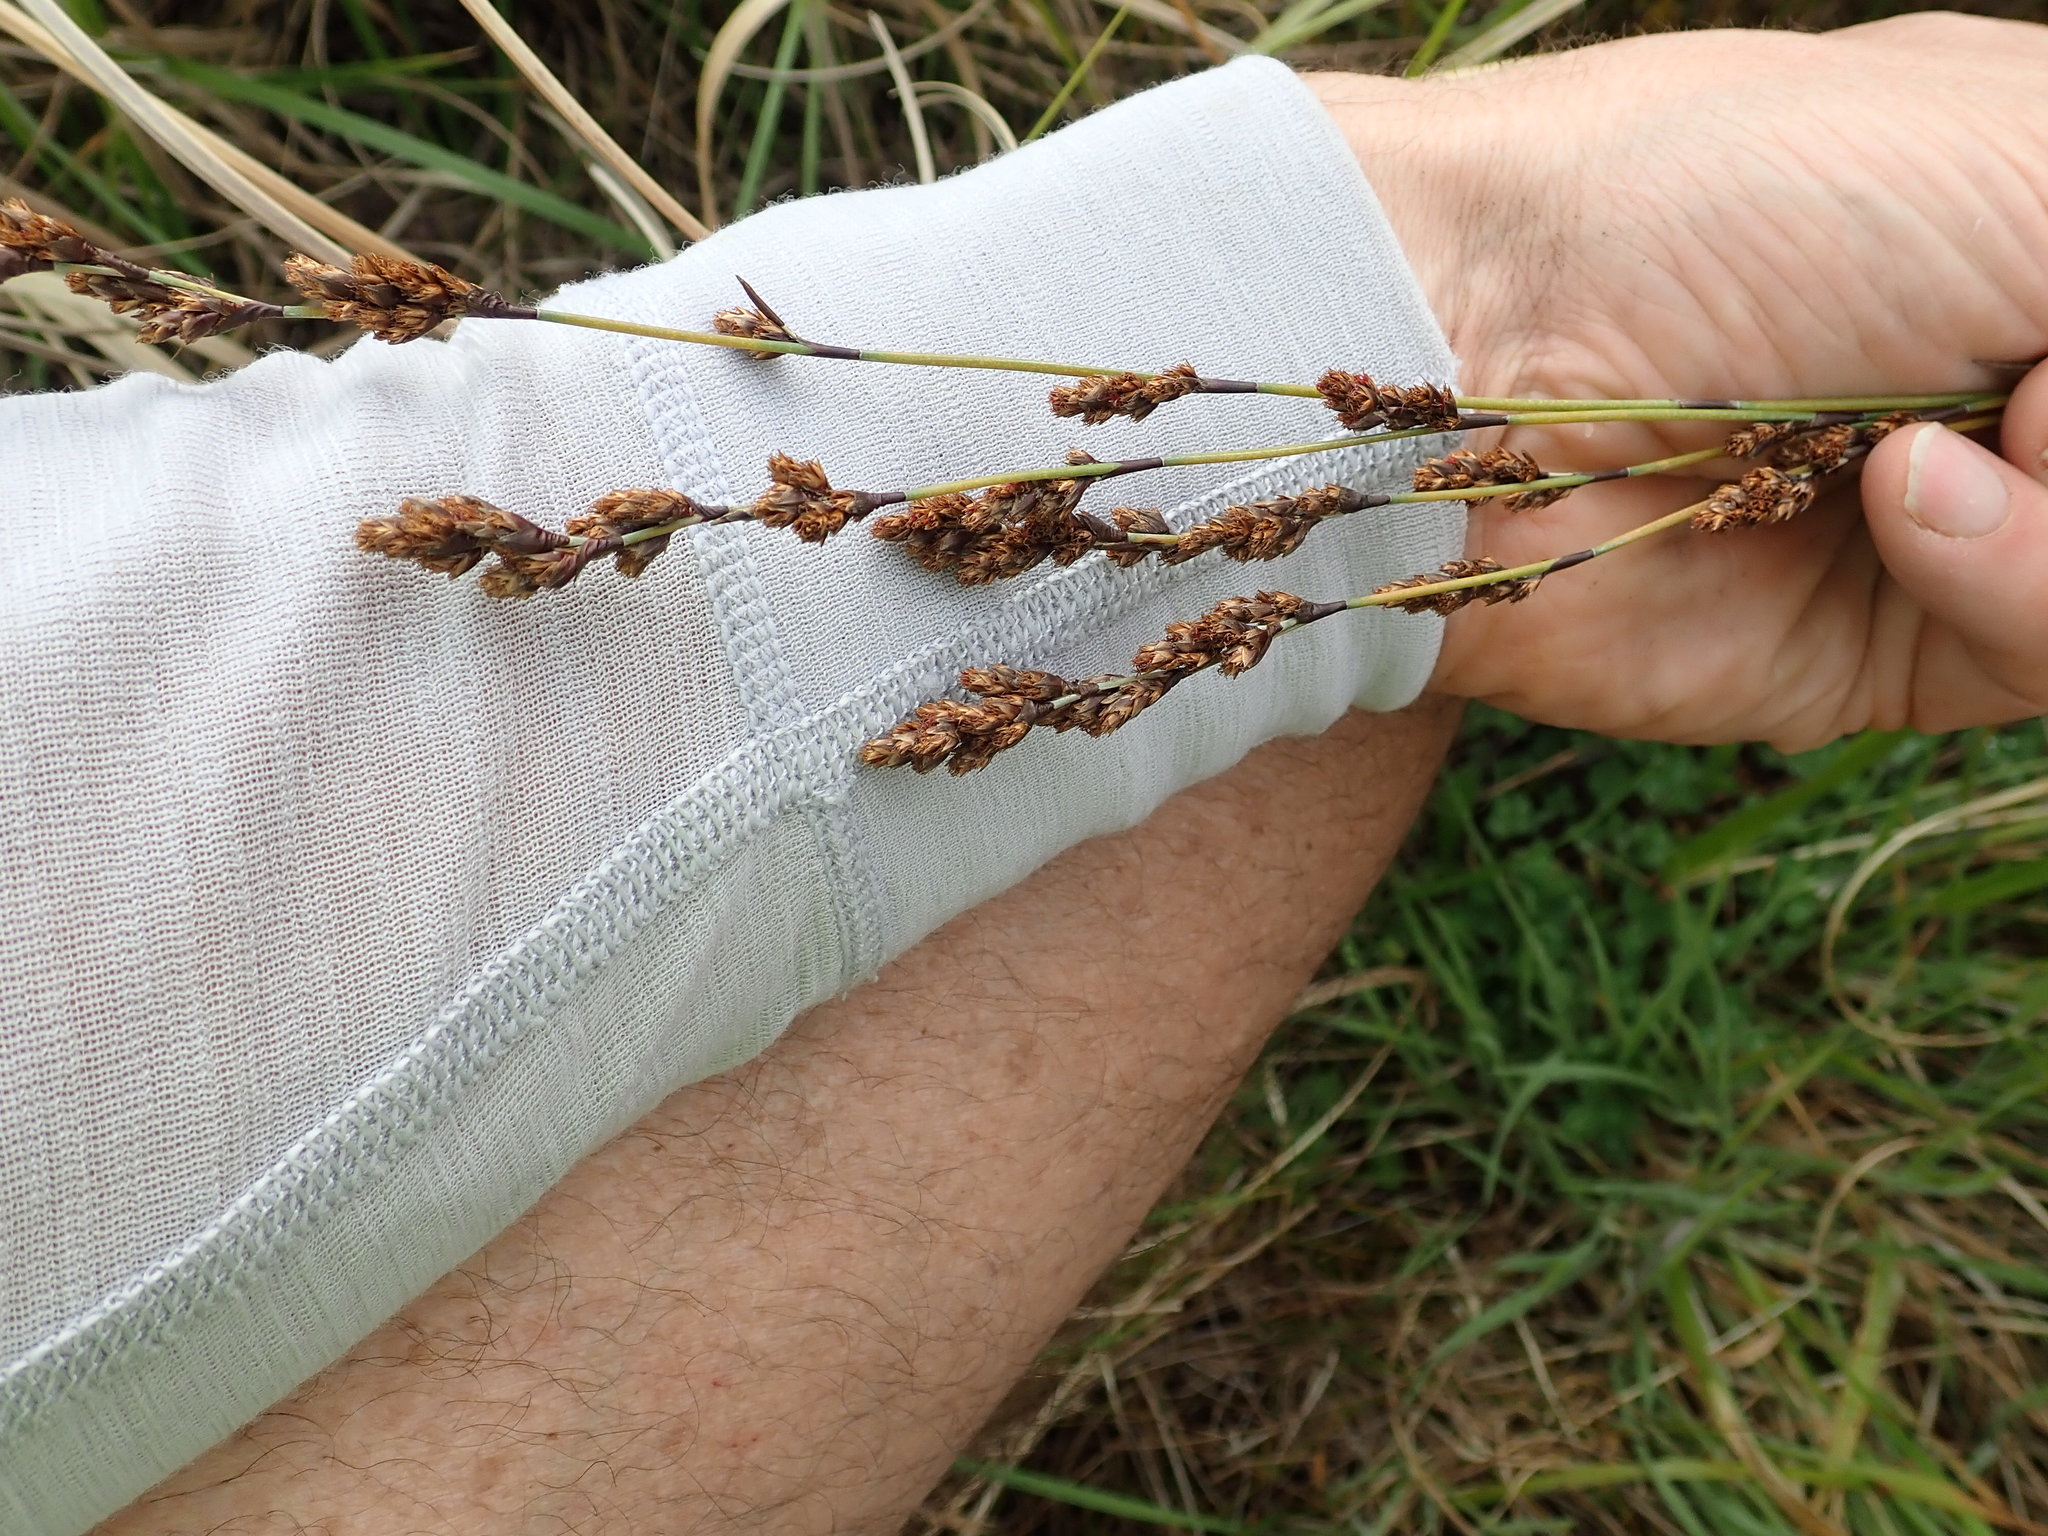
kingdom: Plantae
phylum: Tracheophyta
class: Liliopsida
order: Poales
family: Restionaceae
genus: Apodasmia
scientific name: Apodasmia similis
